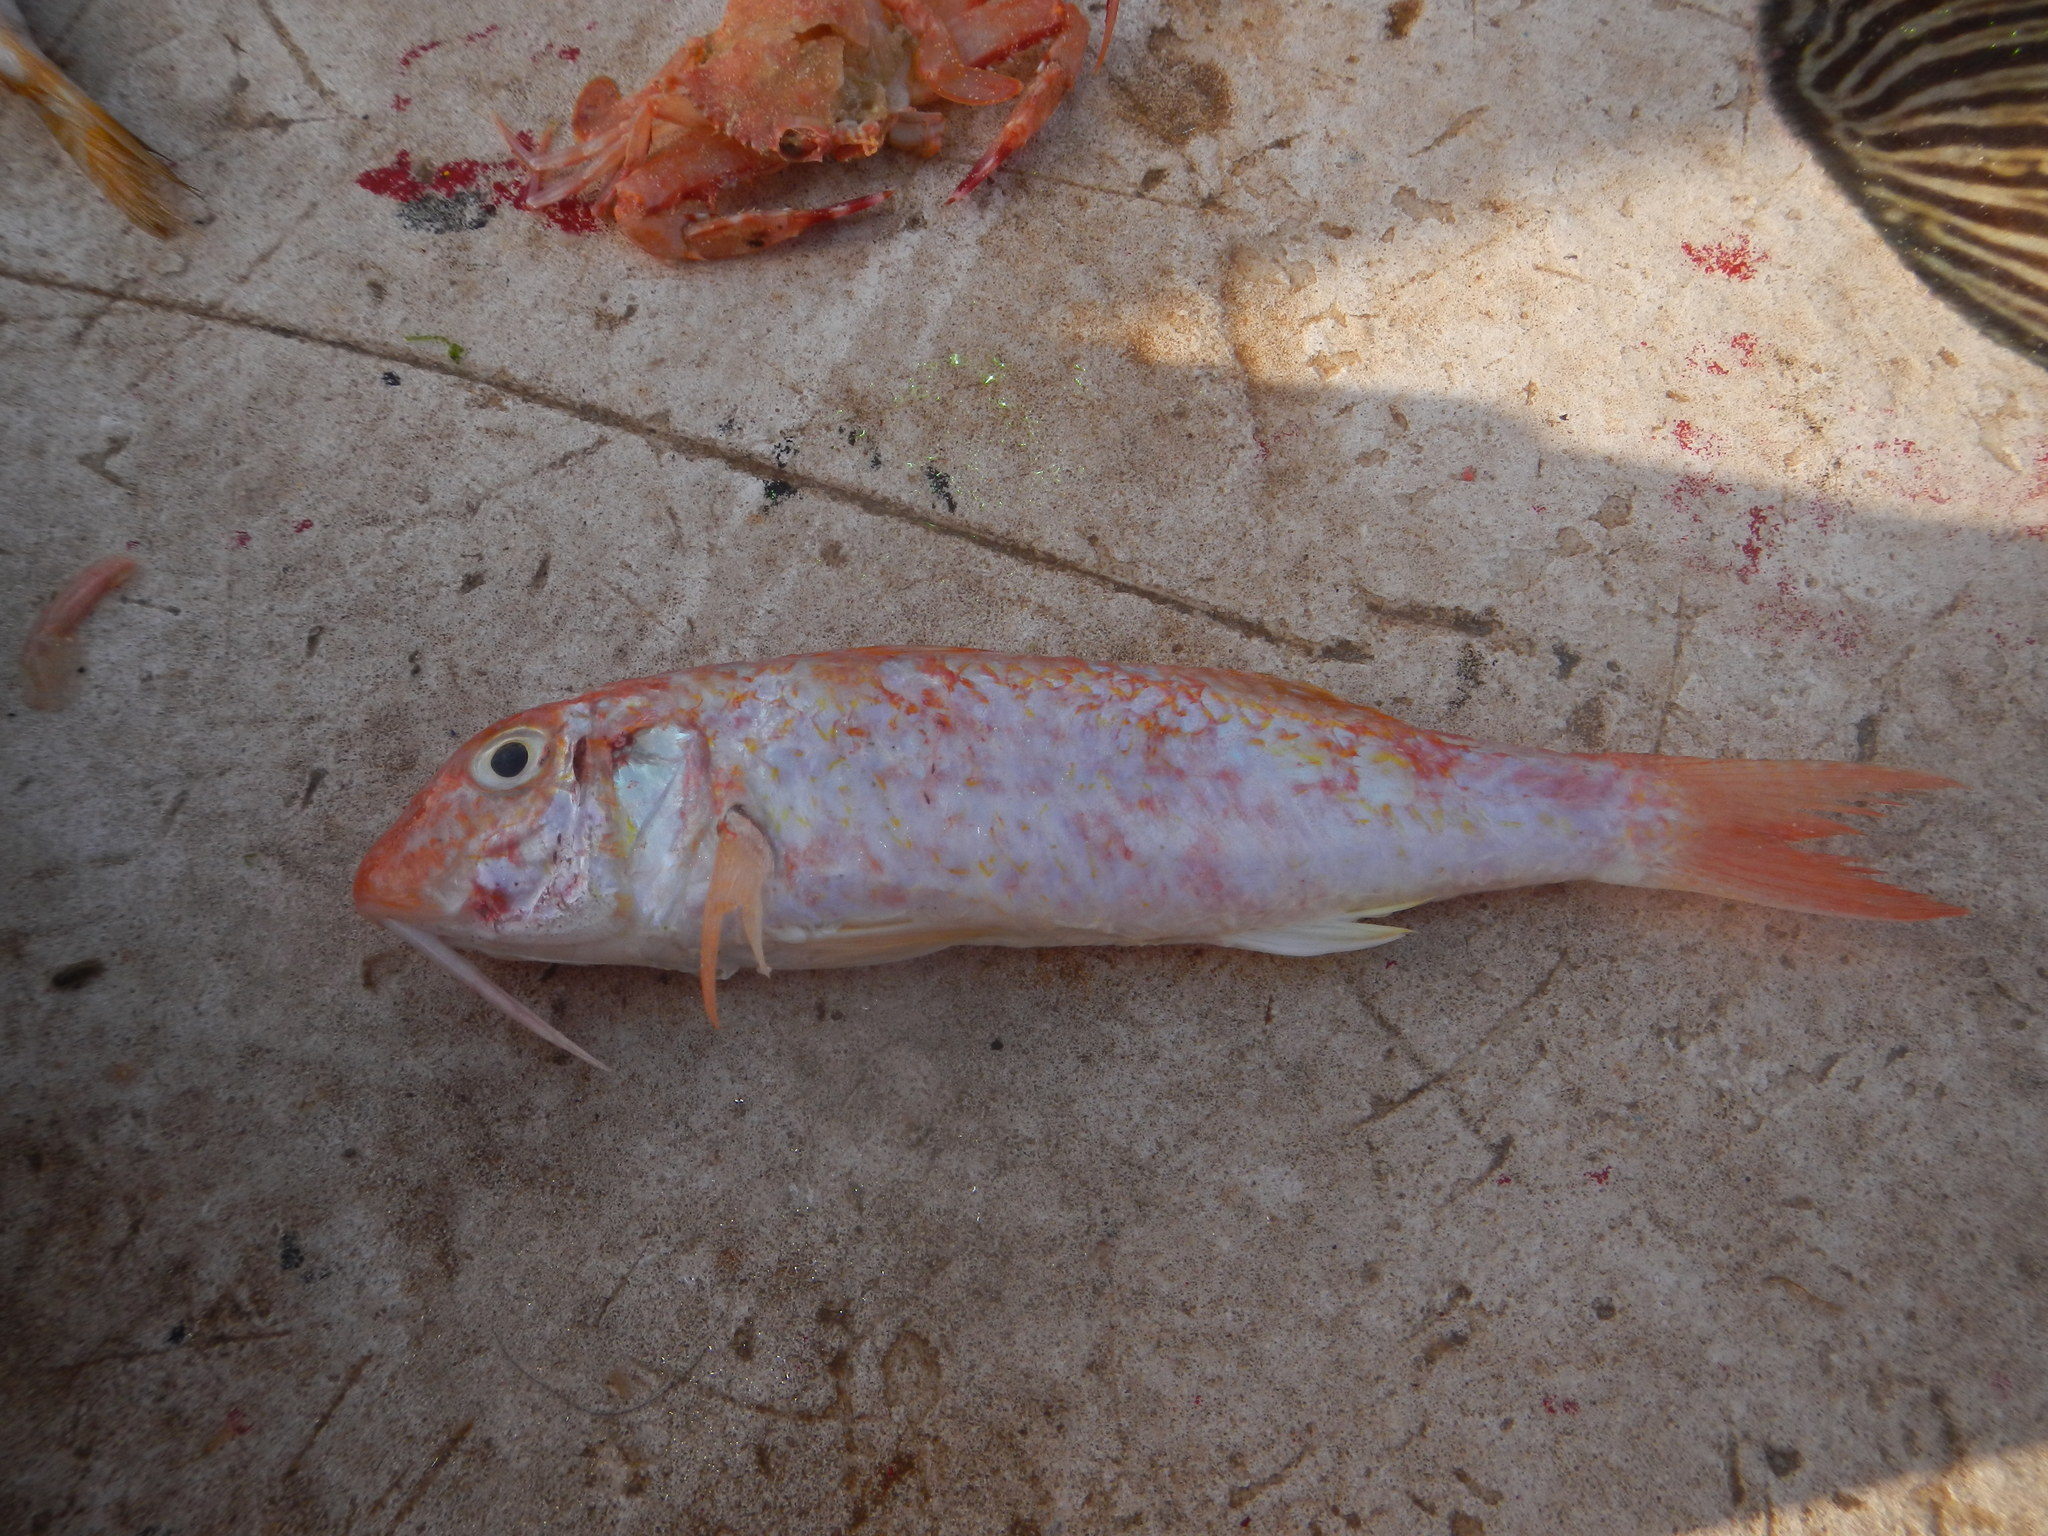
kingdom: Animalia
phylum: Chordata
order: Perciformes
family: Mullidae
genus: Pseudupeneus
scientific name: Pseudupeneus maculatus
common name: Spotted goatfish
